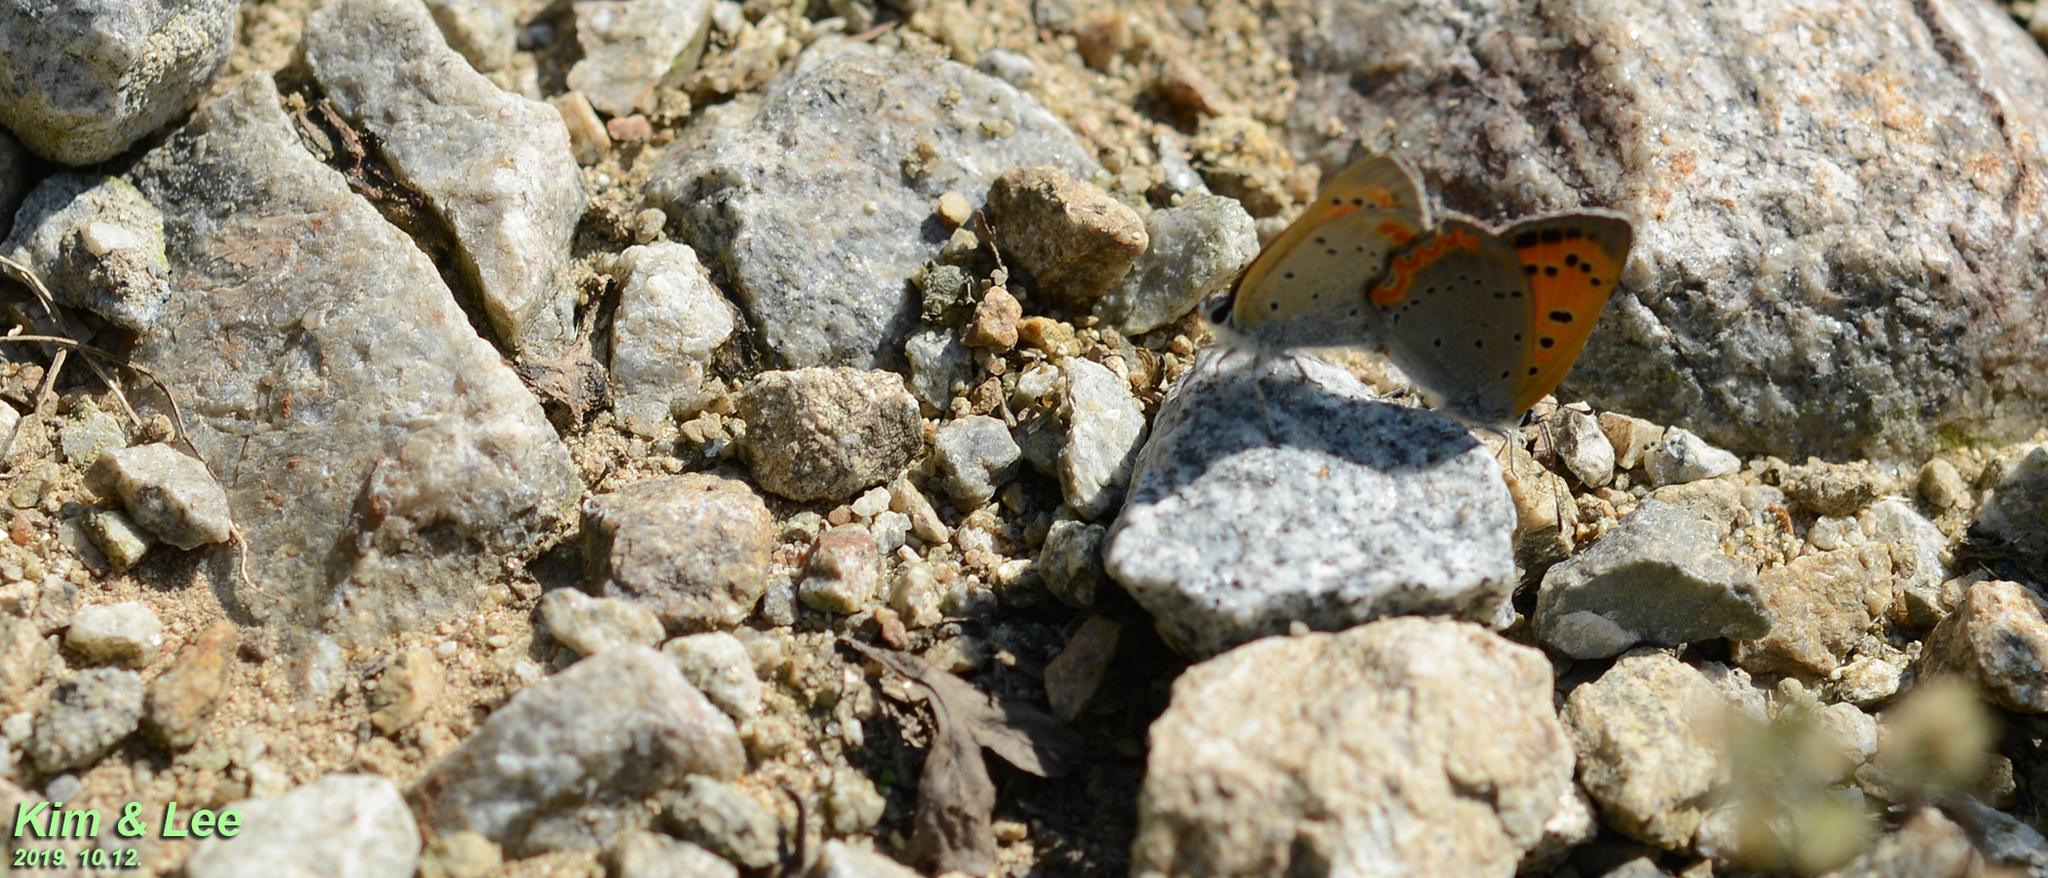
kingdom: Animalia
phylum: Arthropoda
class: Insecta
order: Lepidoptera
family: Lycaenidae
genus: Lycaena
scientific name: Lycaena phlaeas
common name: Small copper
